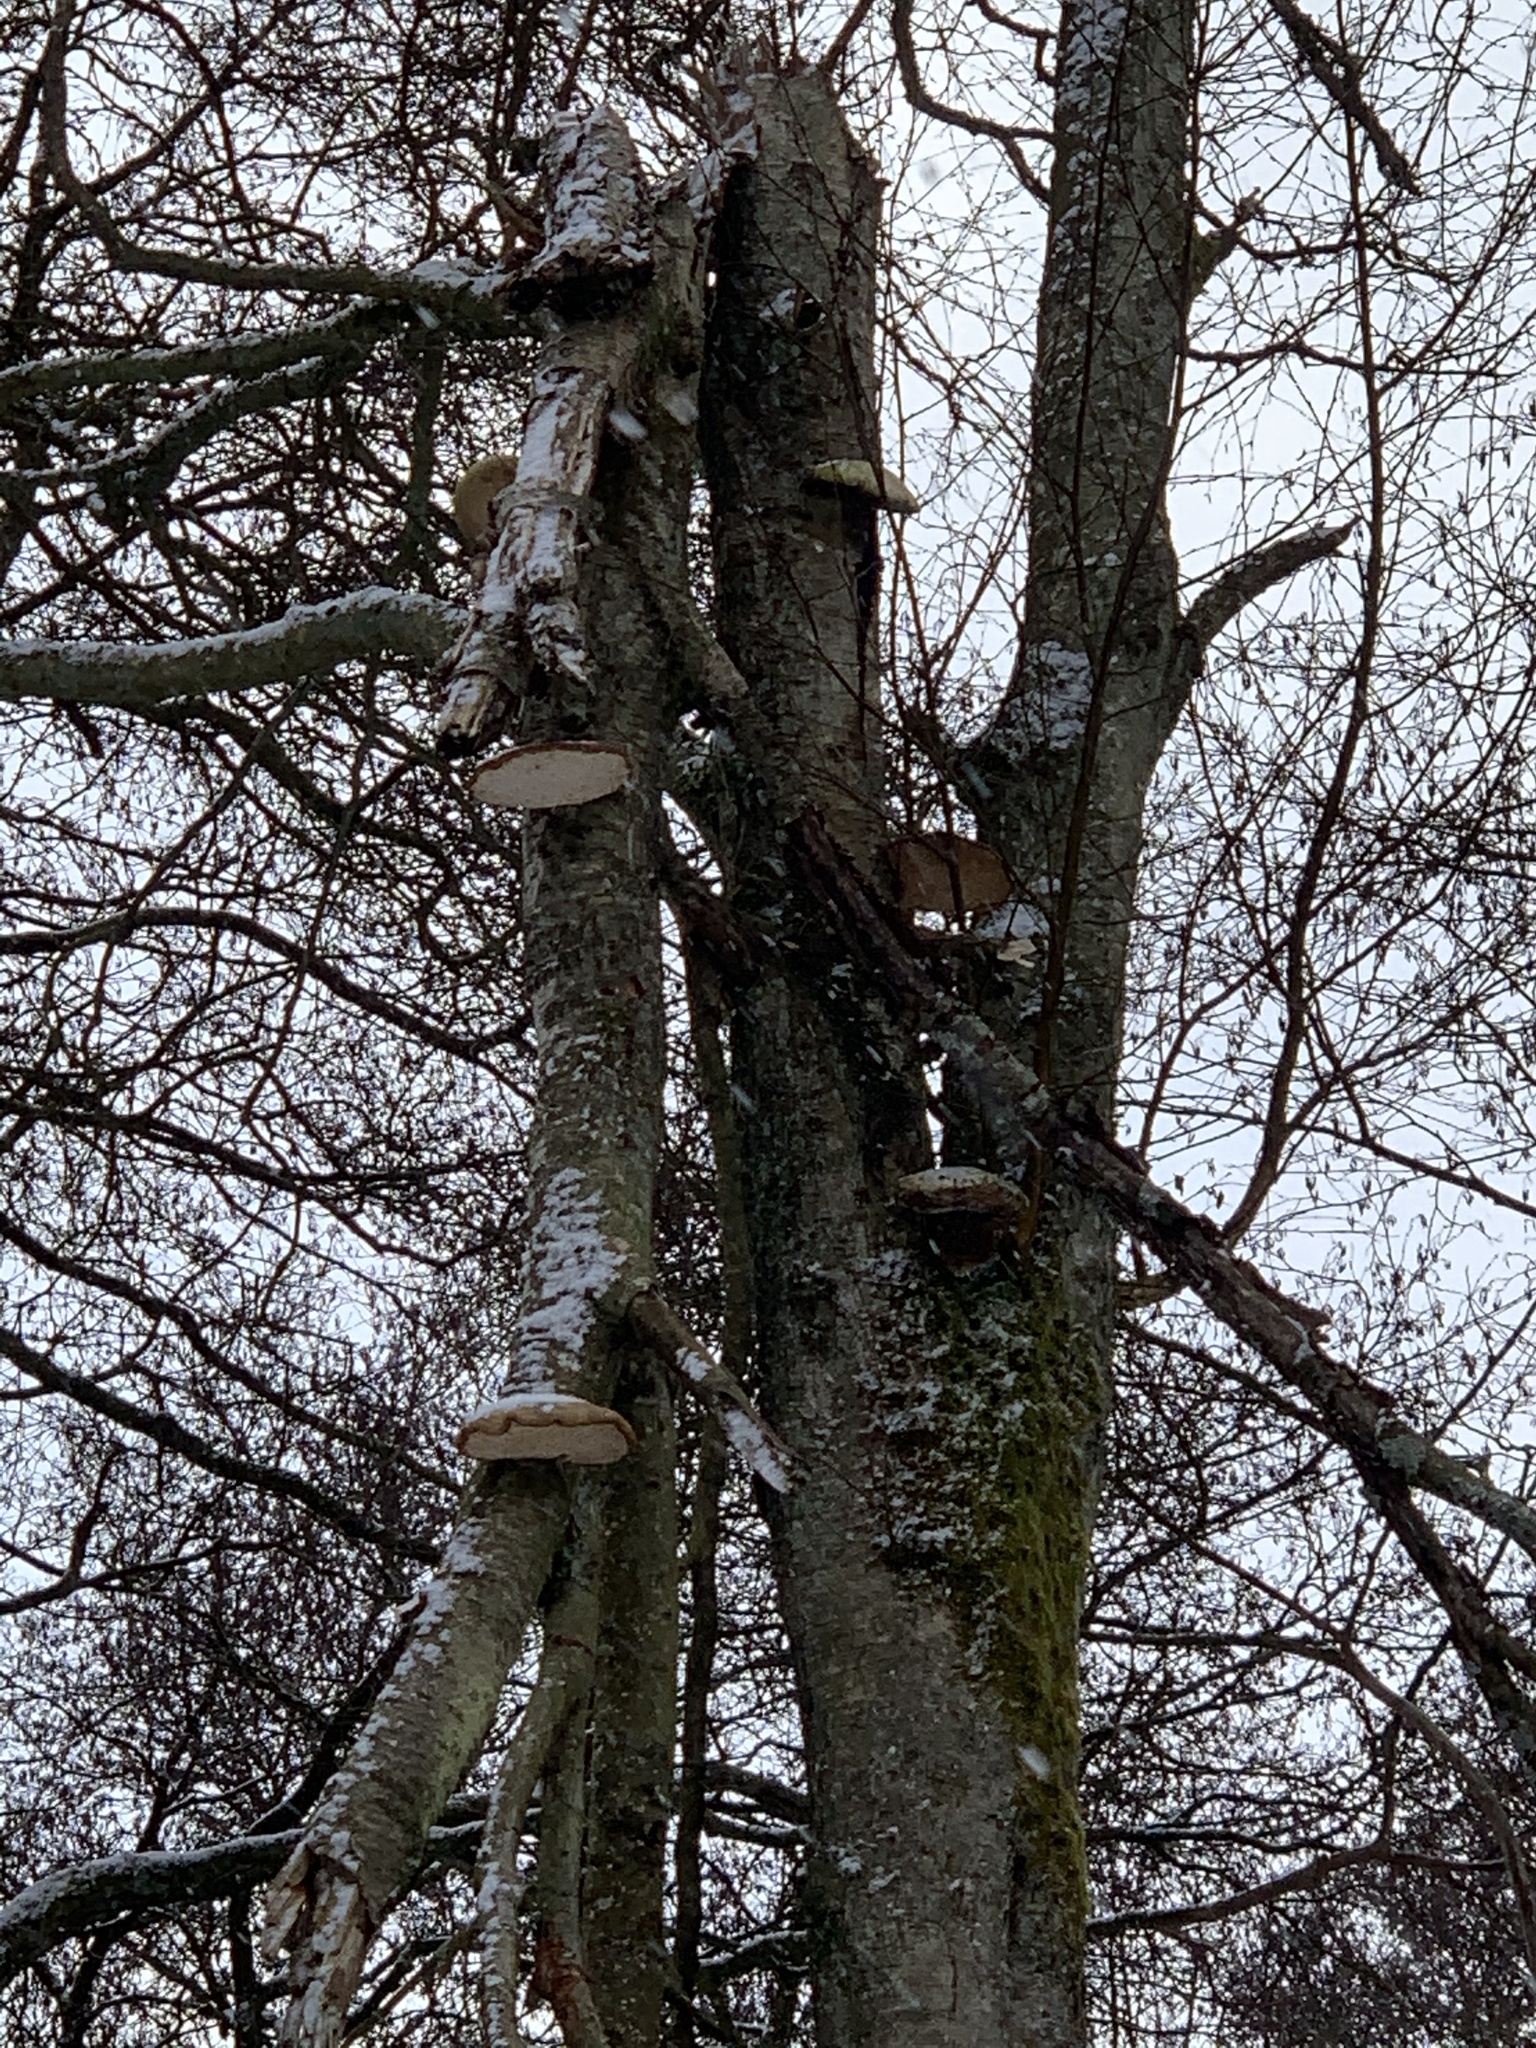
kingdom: Fungi
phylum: Basidiomycota
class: Agaricomycetes
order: Polyporales
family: Fomitopsidaceae
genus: Fomitopsis
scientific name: Fomitopsis betulina
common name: Birch polypore
